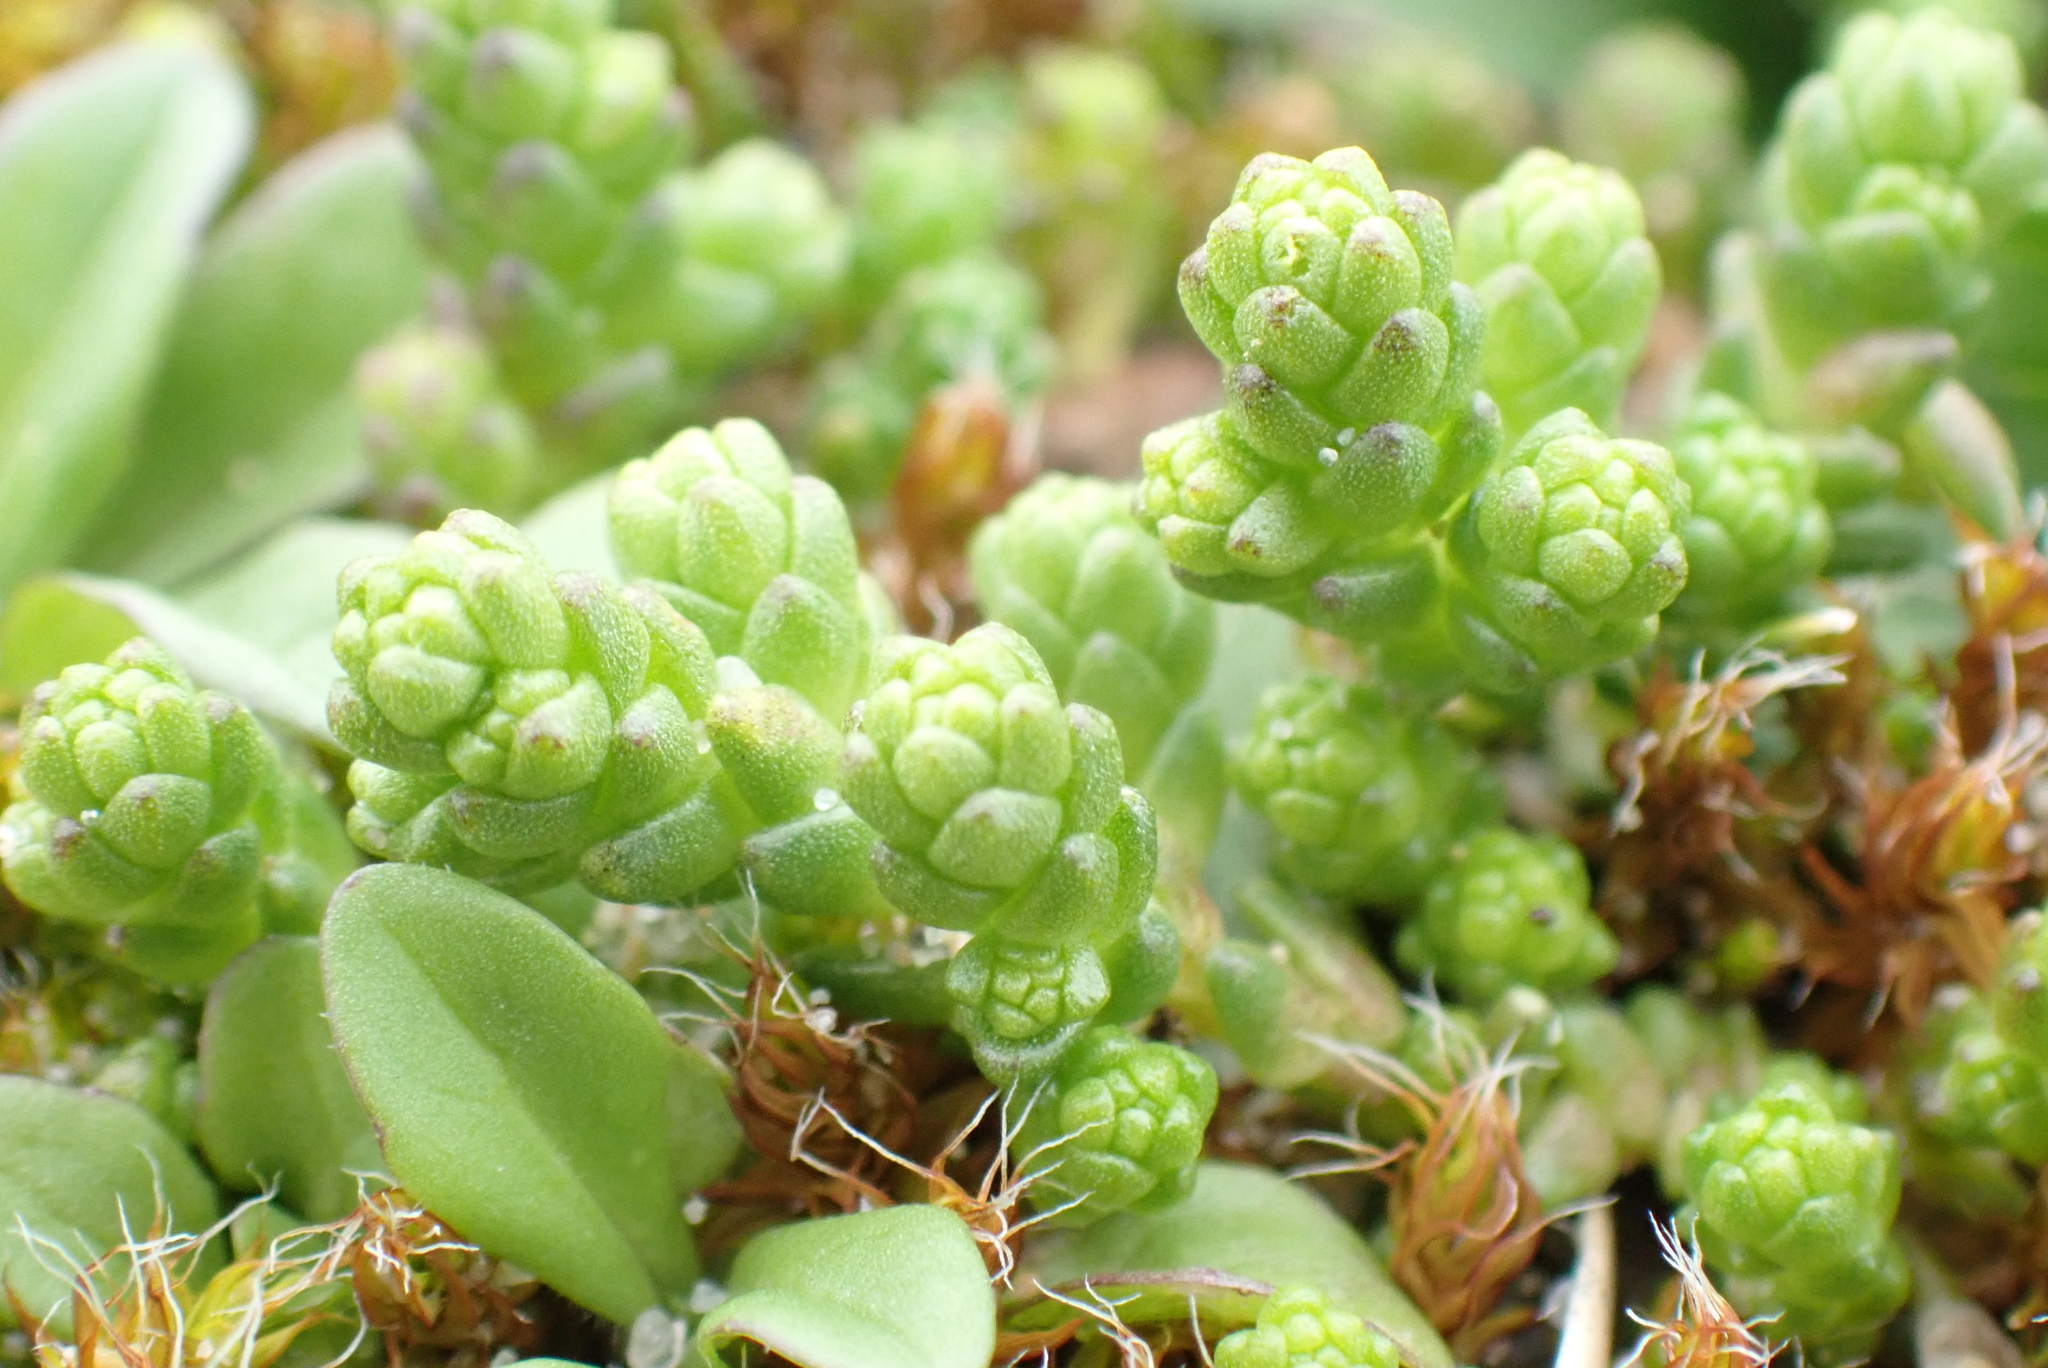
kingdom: Plantae
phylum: Tracheophyta
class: Magnoliopsida
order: Saxifragales
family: Crassulaceae
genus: Sedum
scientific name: Sedum acre
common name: Biting stonecrop
